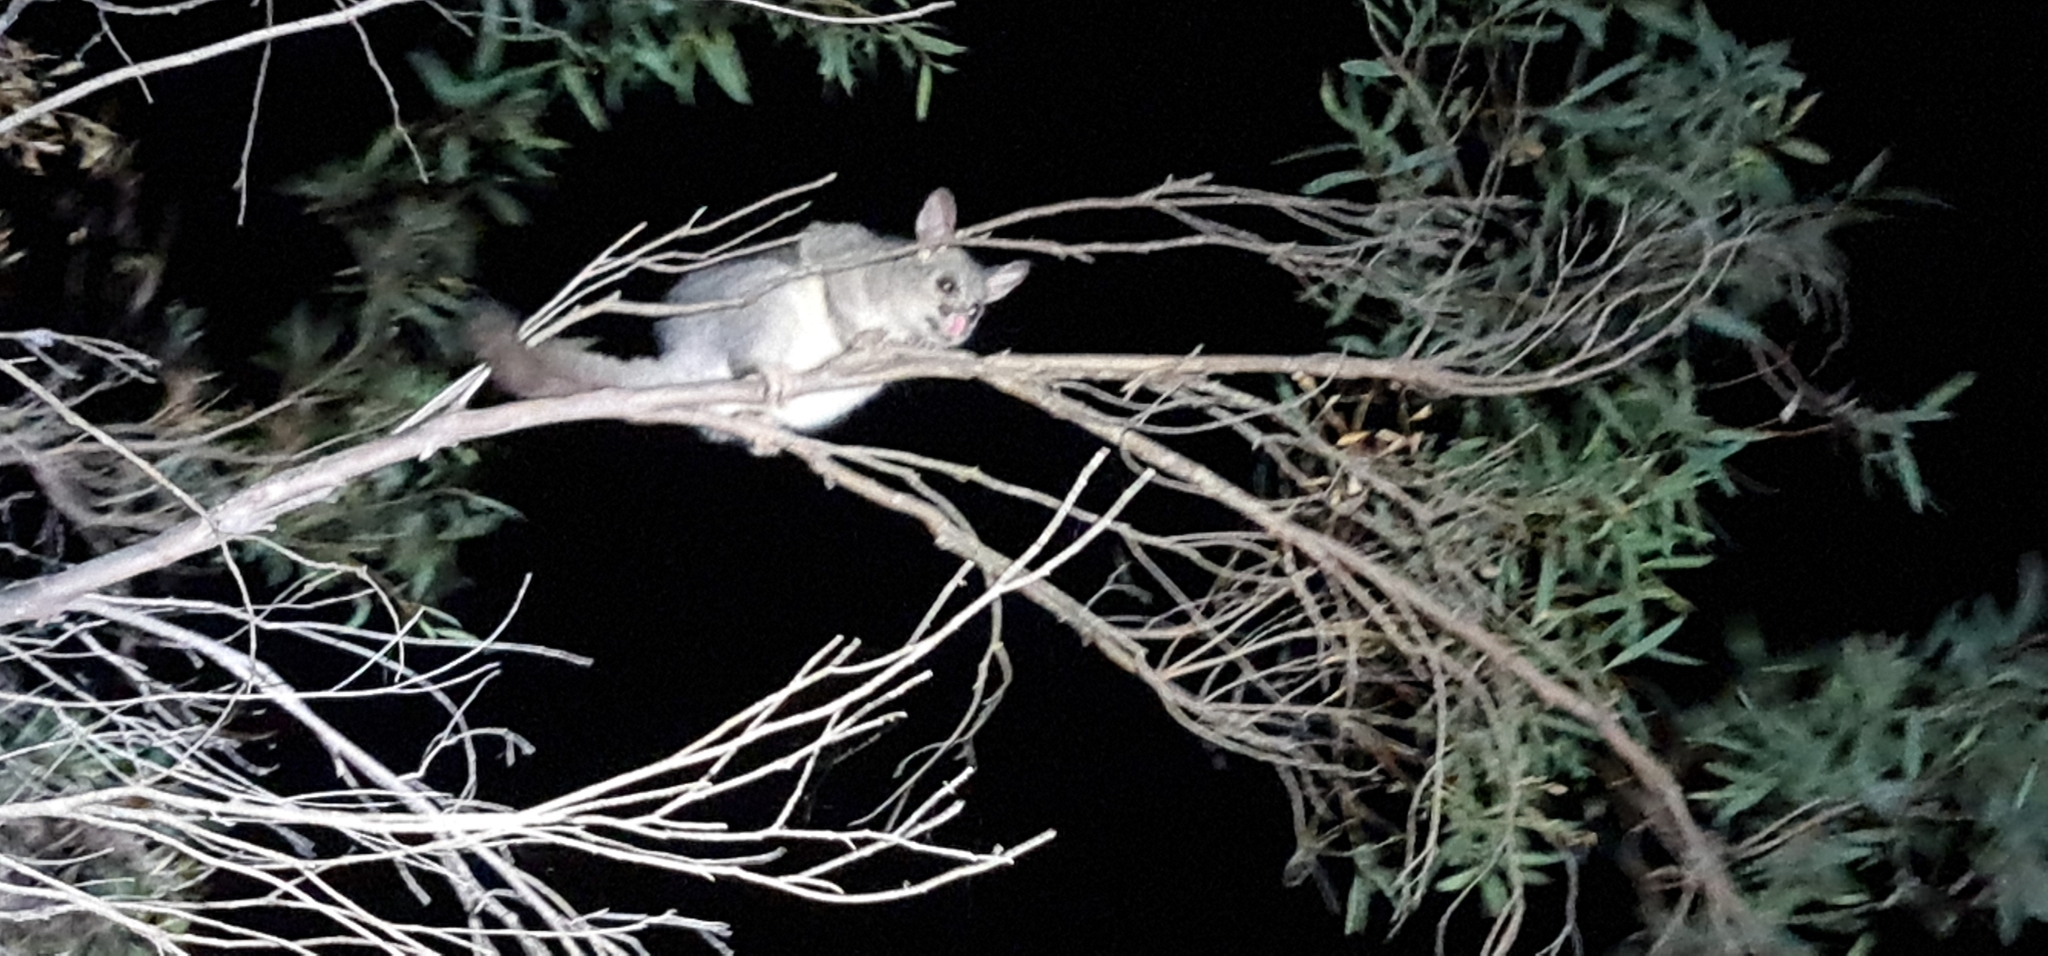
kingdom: Animalia
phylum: Chordata
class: Mammalia
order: Diprotodontia
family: Phalangeridae
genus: Trichosurus
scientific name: Trichosurus vulpecula
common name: Common brushtail
